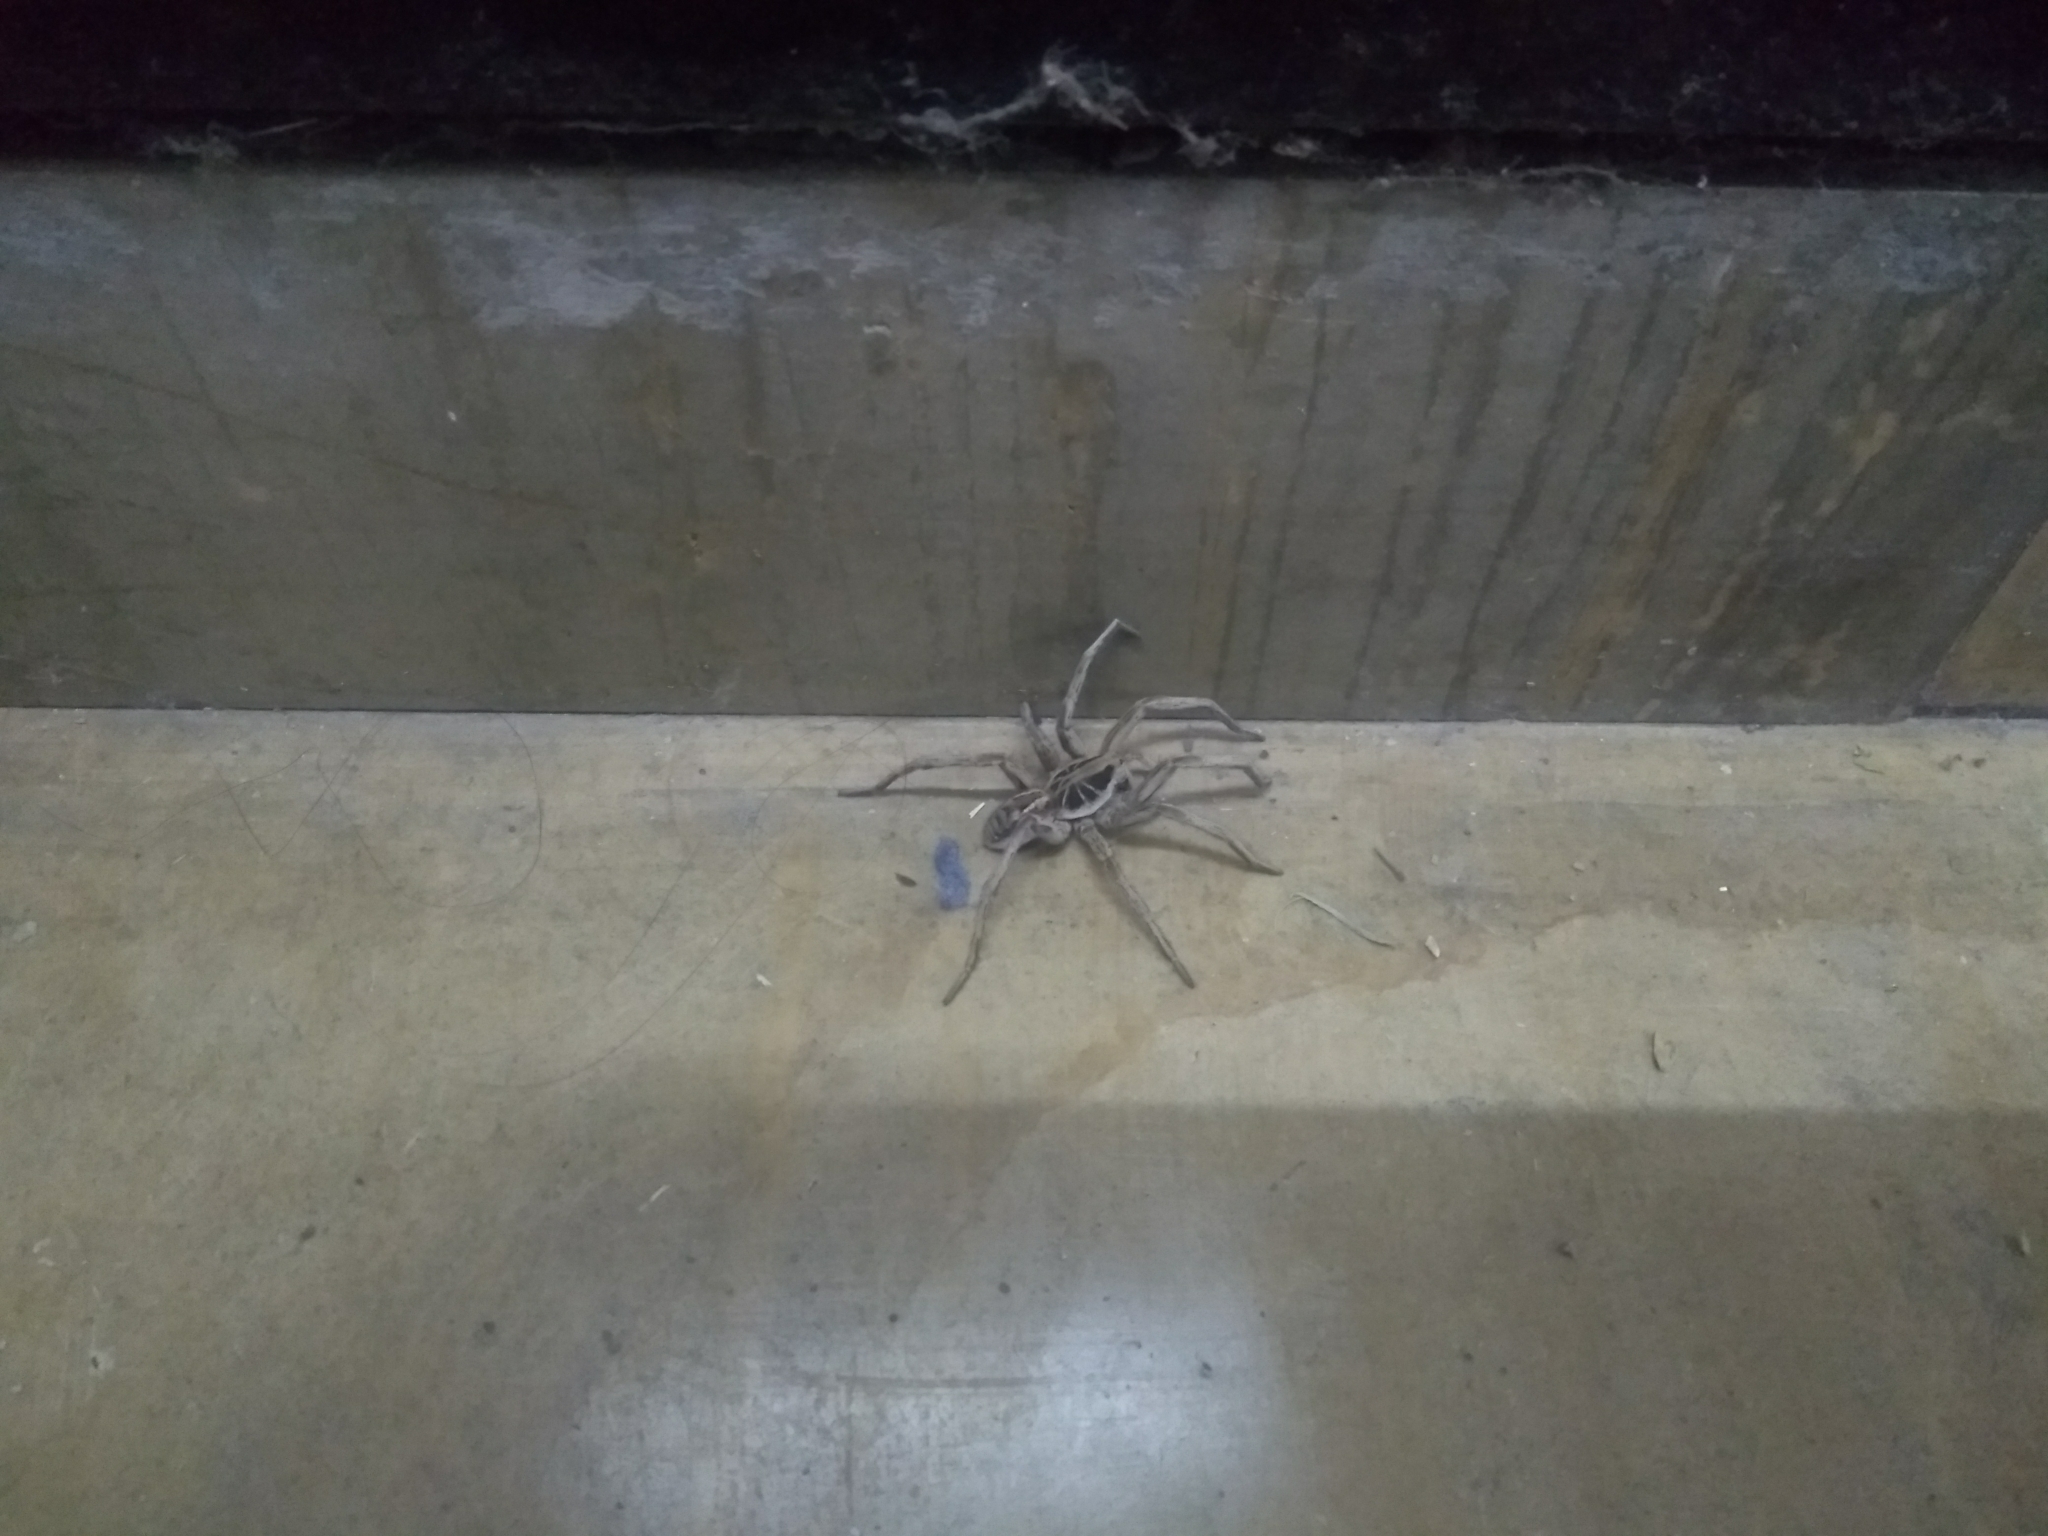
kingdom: Animalia
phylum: Arthropoda
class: Arachnida
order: Araneae
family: Lycosidae
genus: Lycosa
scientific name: Lycosa pampeana
